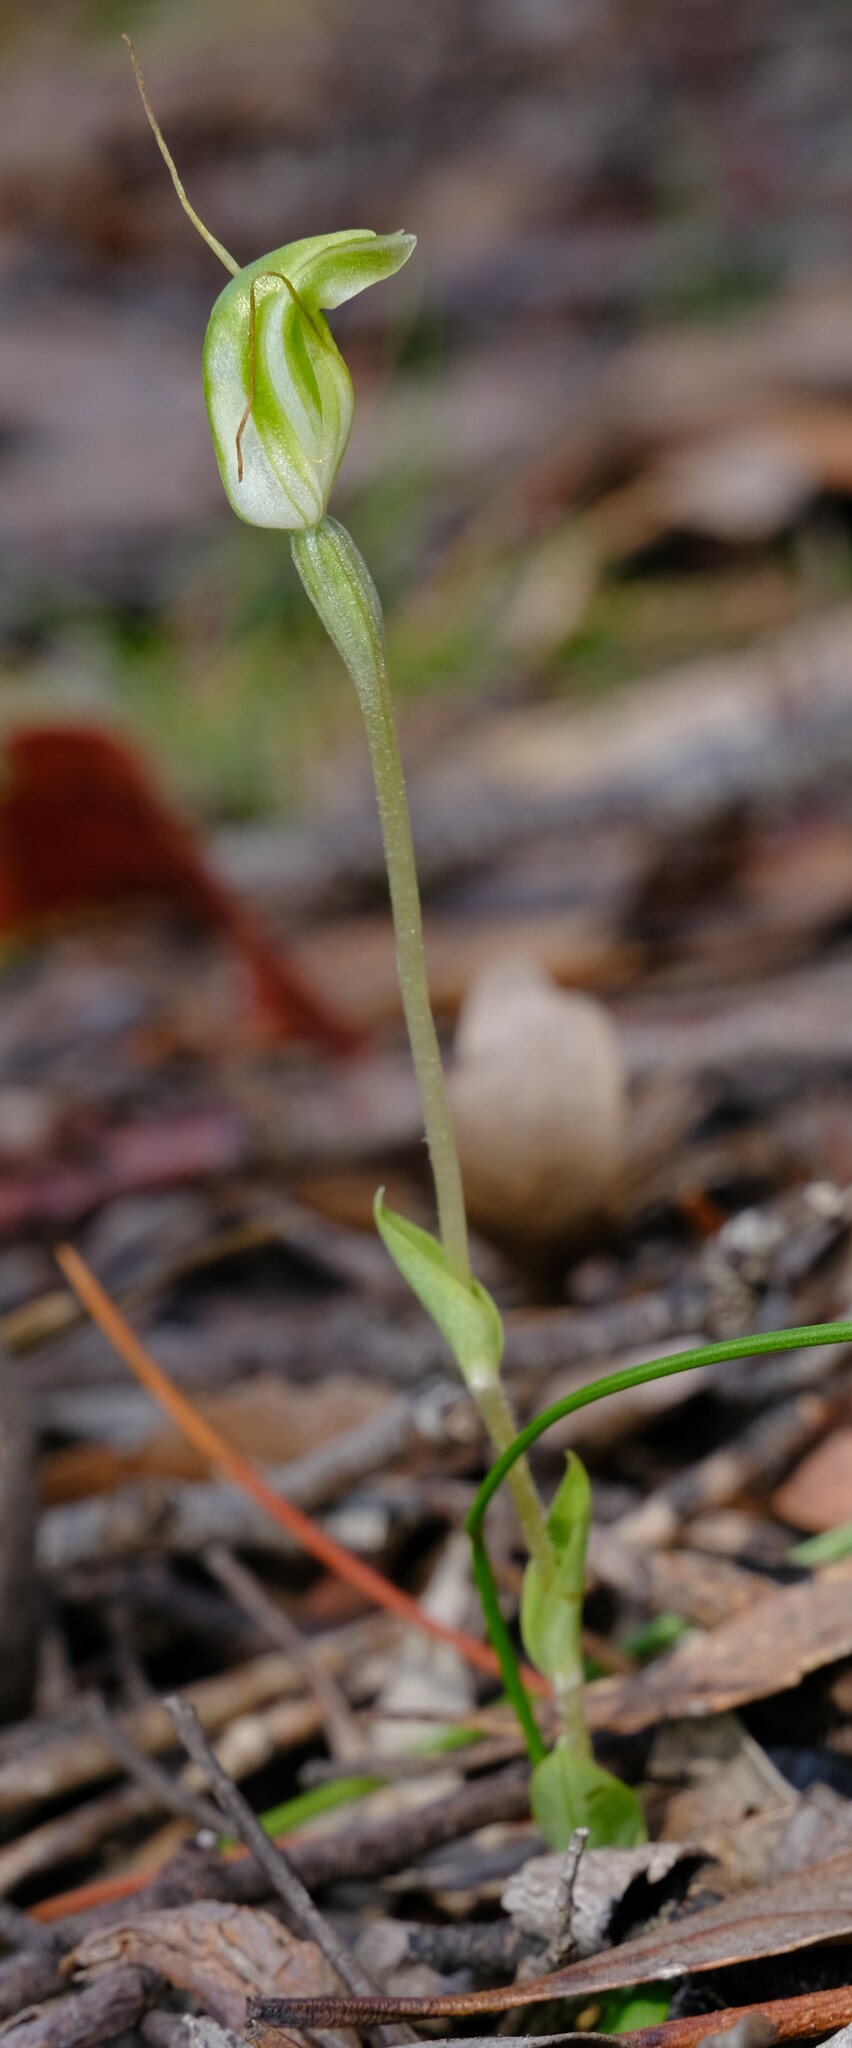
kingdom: Plantae
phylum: Tracheophyta
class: Liliopsida
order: Asparagales
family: Orchidaceae
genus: Pterostylis
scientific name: Pterostylis nana
